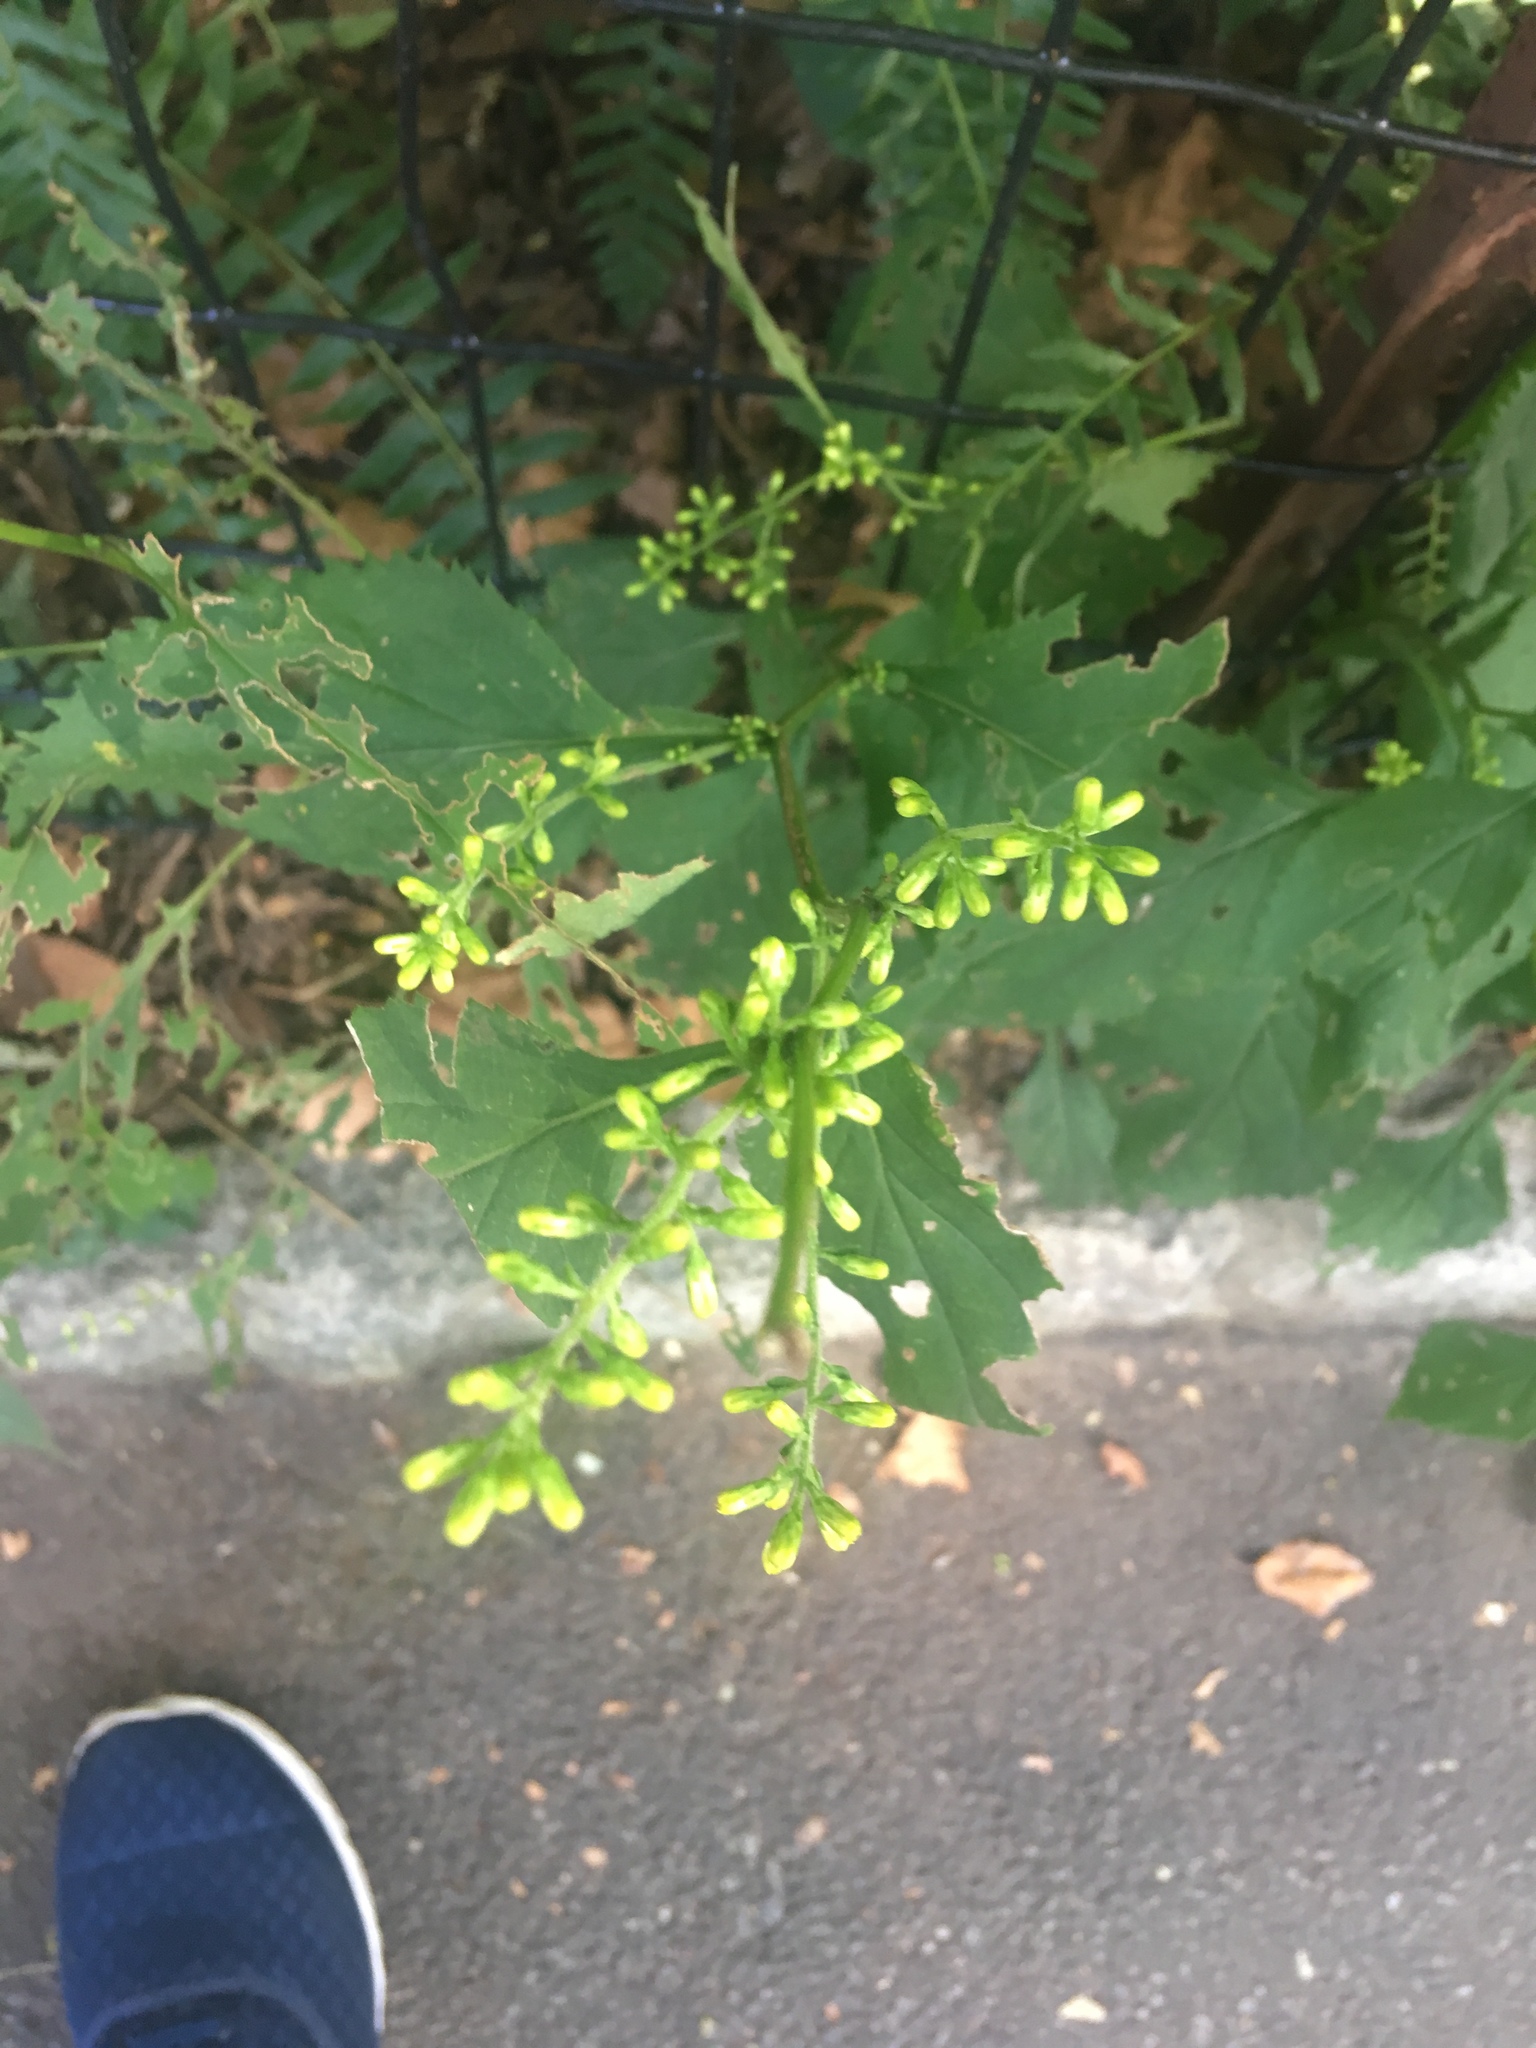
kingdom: Plantae
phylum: Tracheophyta
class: Magnoliopsida
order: Asterales
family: Asteraceae
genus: Solidago
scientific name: Solidago flexicaulis
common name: Zig-zag goldenrod
